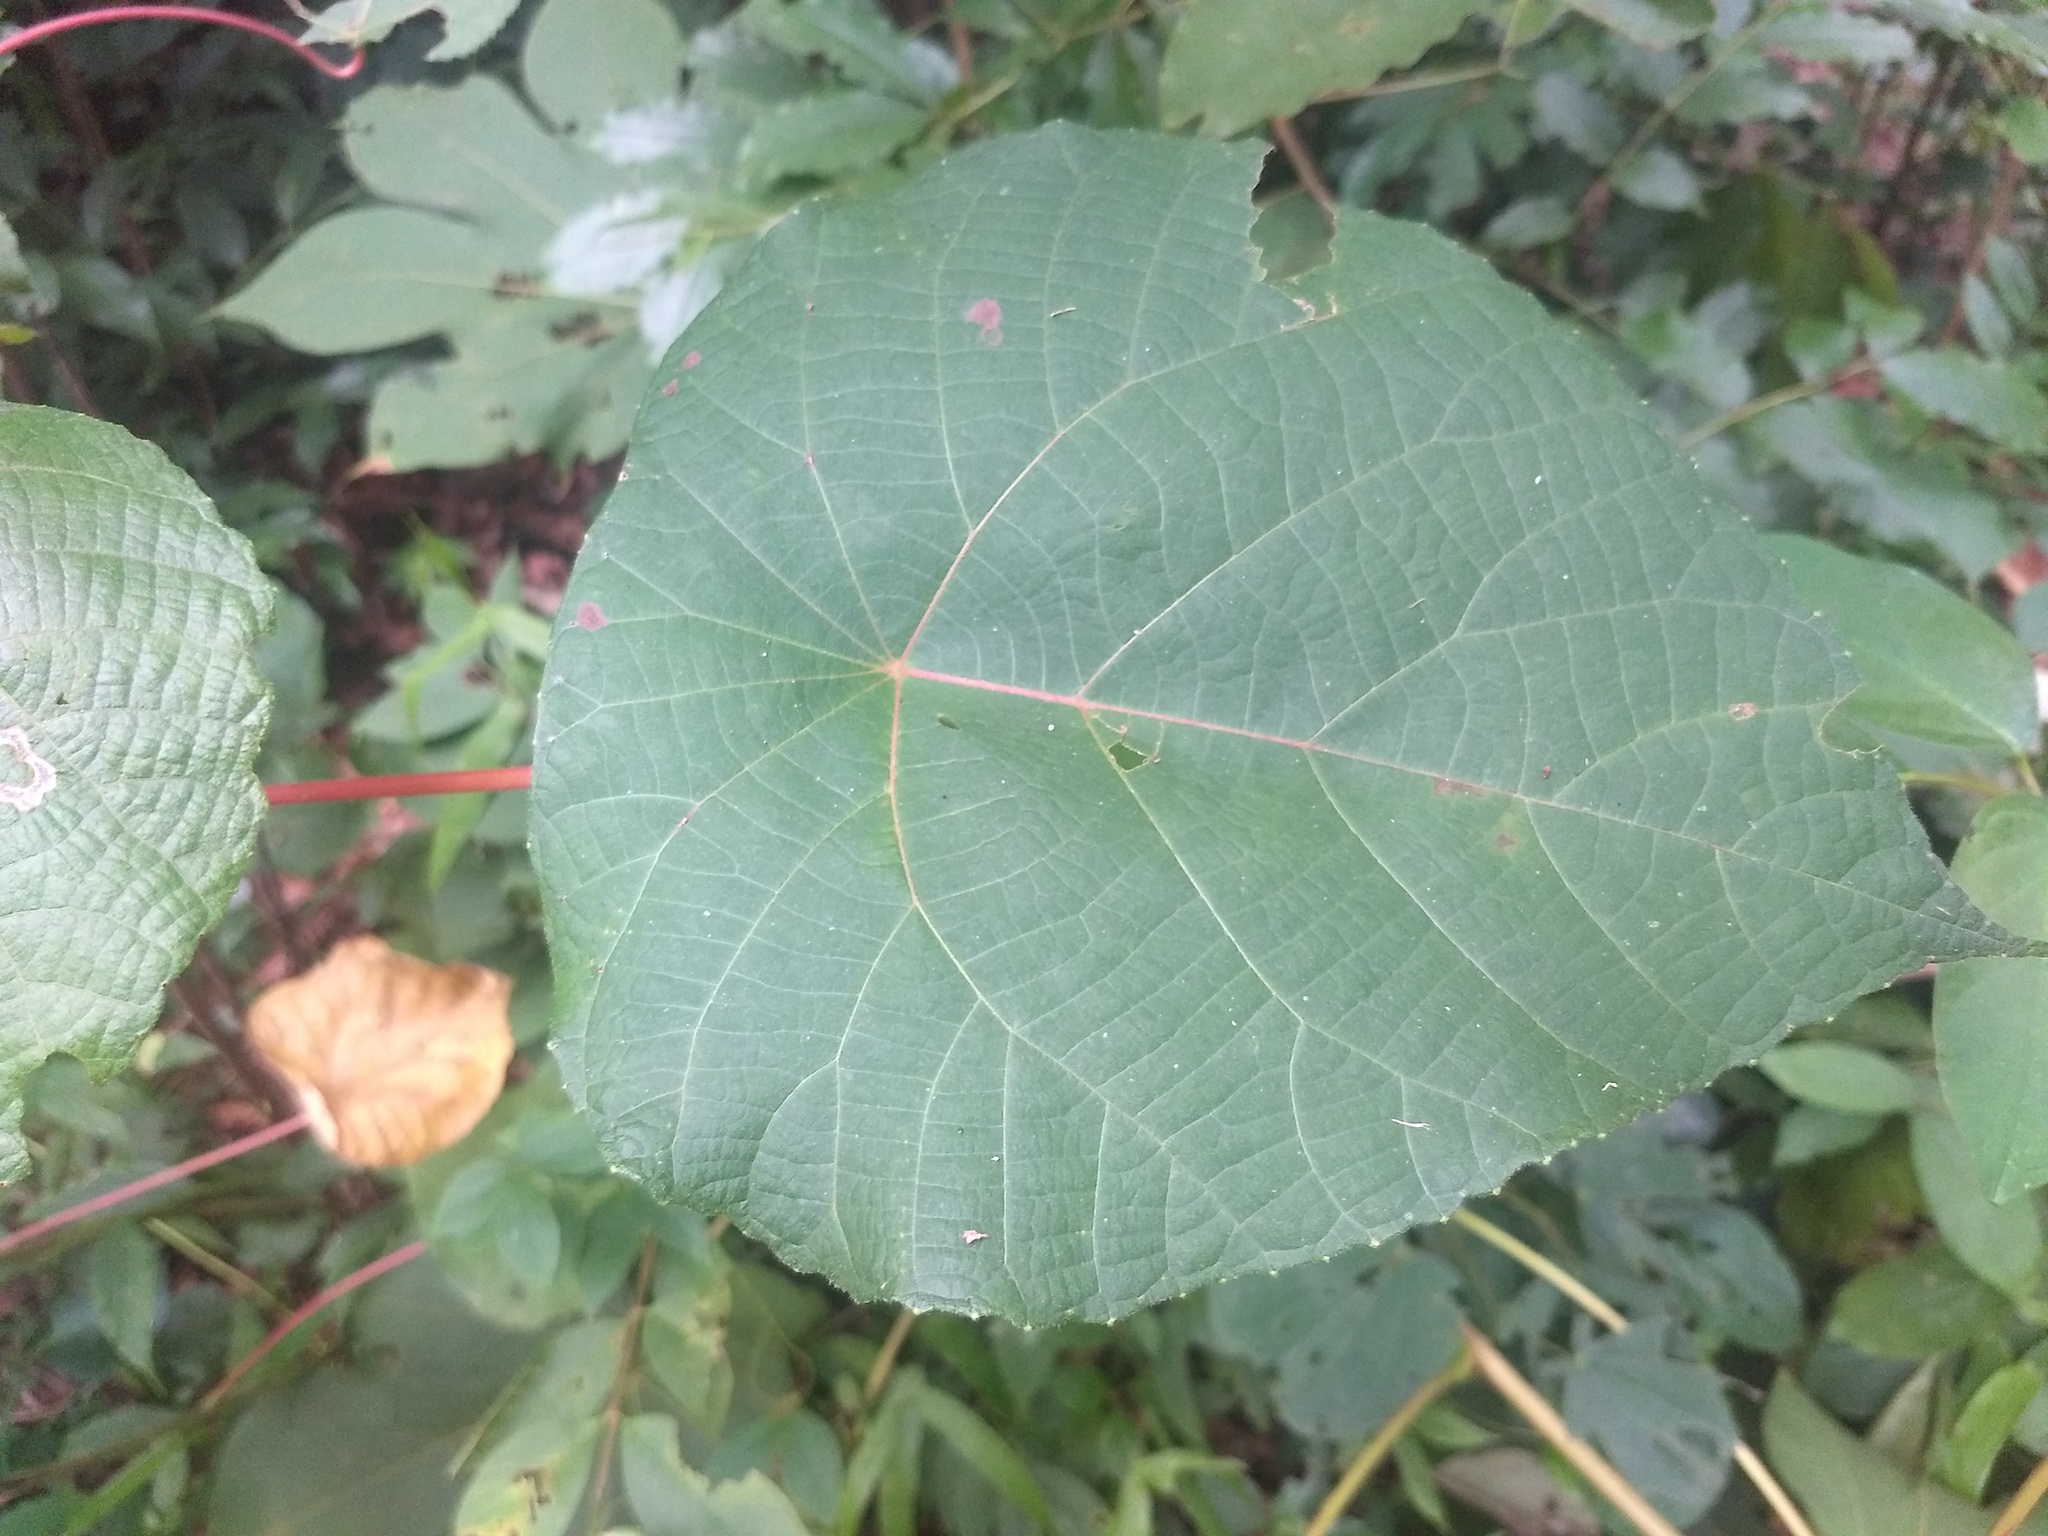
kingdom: Plantae
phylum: Tracheophyta
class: Magnoliopsida
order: Malpighiales
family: Euphorbiaceae
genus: Macaranga
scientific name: Macaranga peltata
